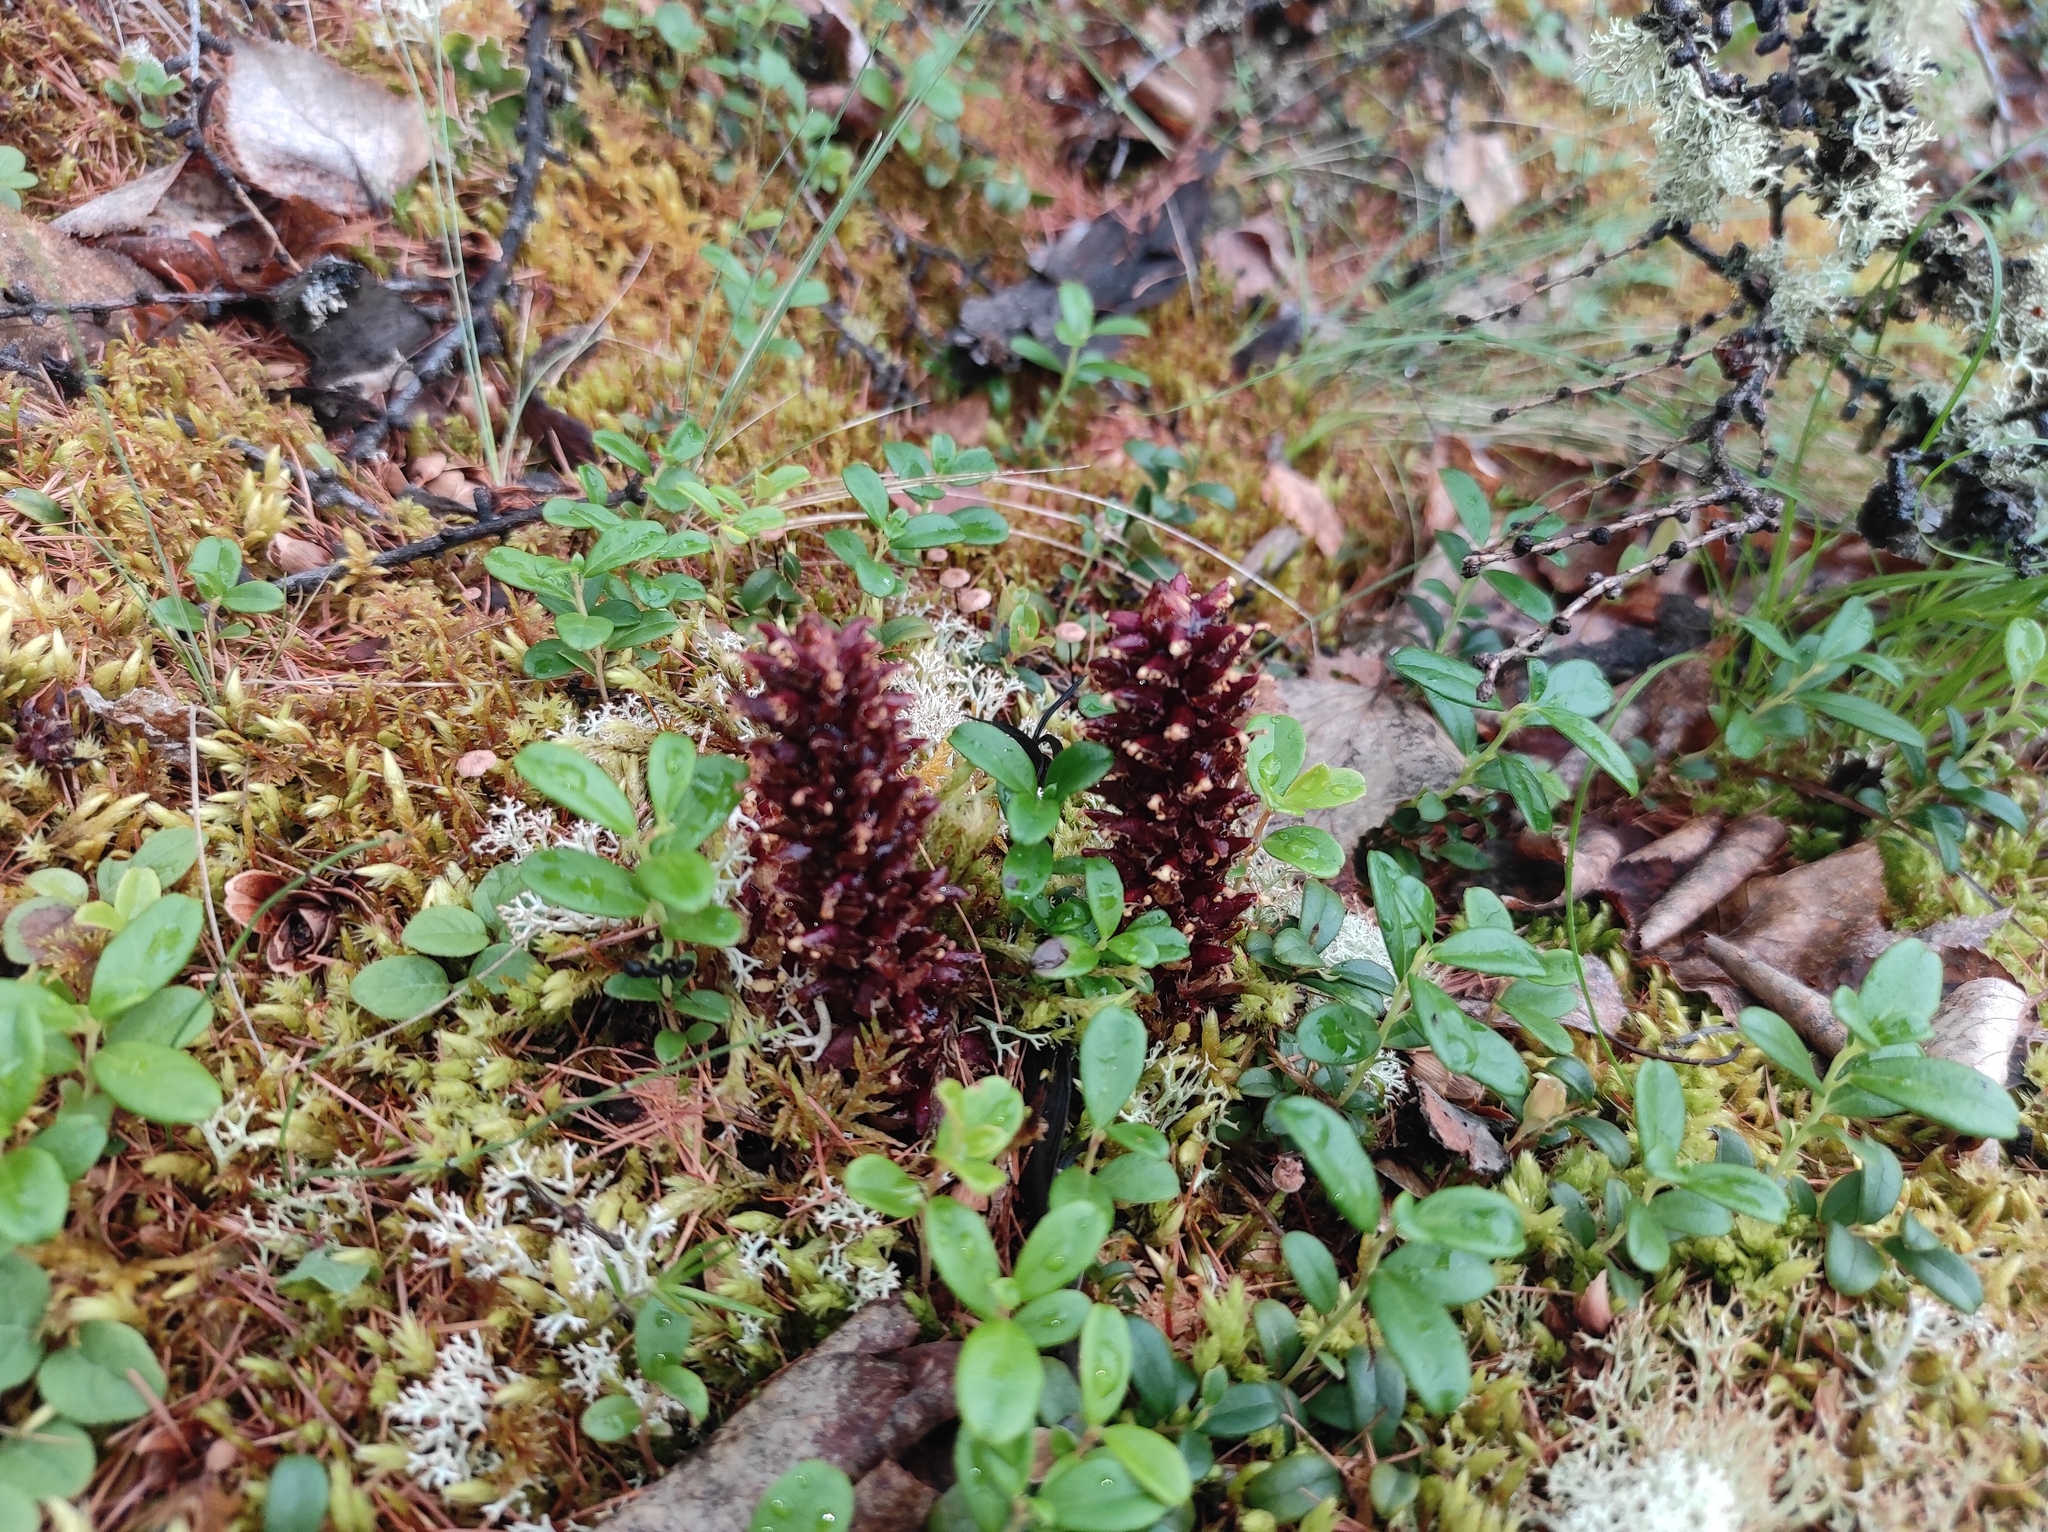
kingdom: Plantae
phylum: Tracheophyta
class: Magnoliopsida
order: Lamiales
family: Orobanchaceae
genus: Boschniakia
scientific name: Boschniakia rossica
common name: Poque
